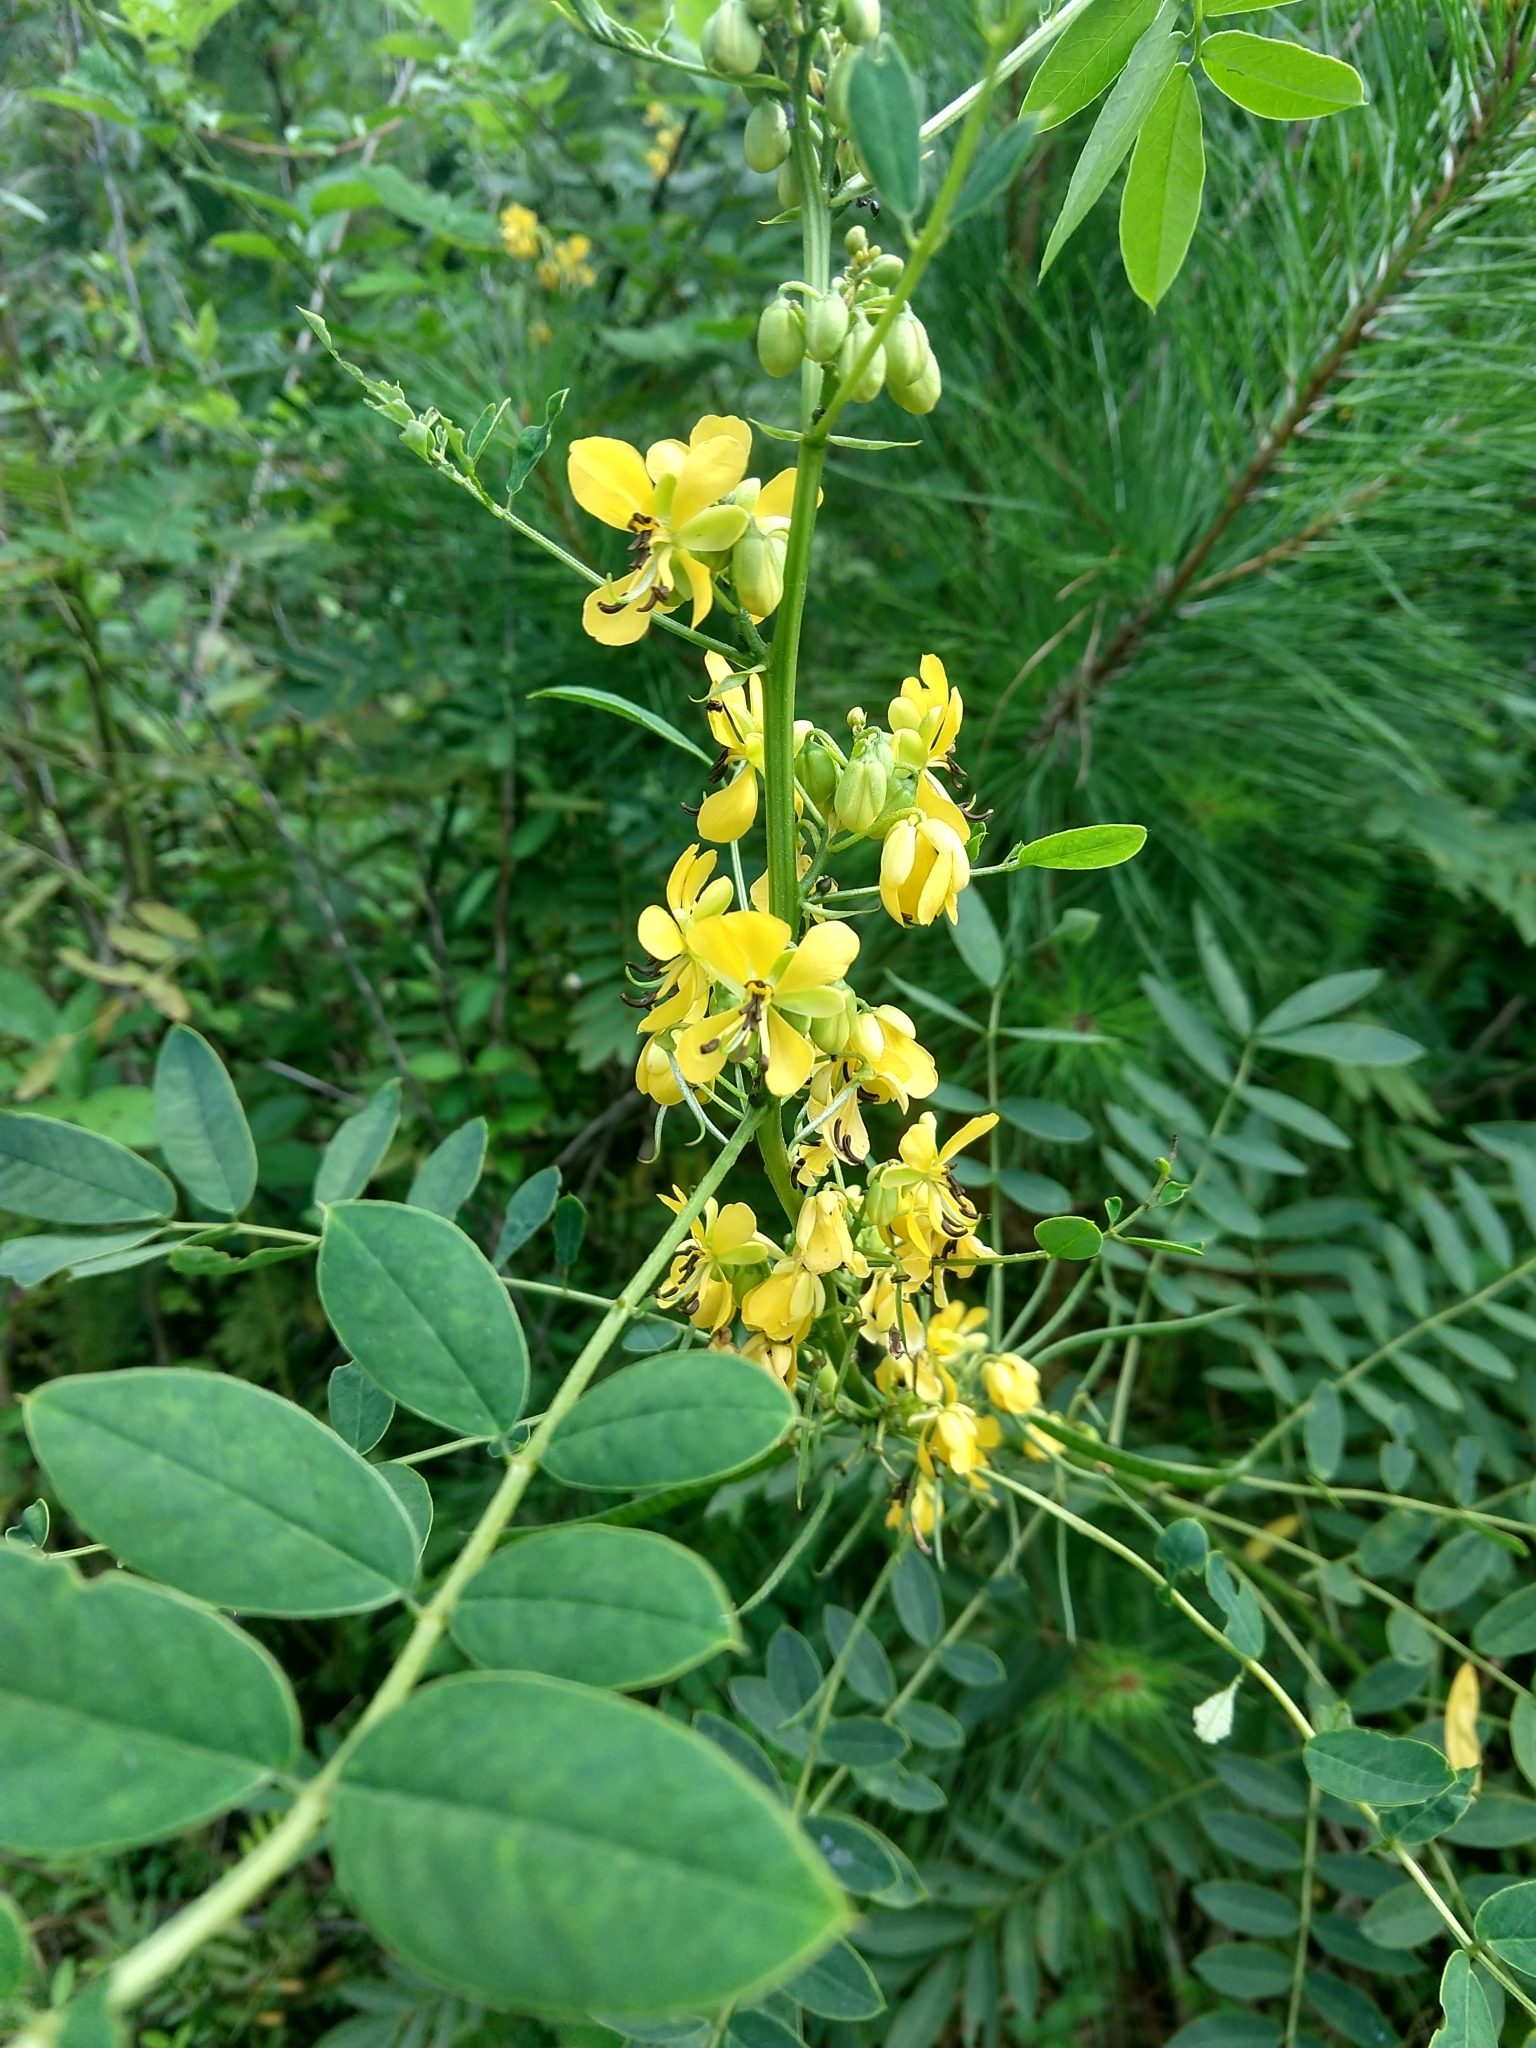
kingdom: Plantae
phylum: Tracheophyta
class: Magnoliopsida
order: Fabales
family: Fabaceae
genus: Senna
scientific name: Senna marilandica
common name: American senna
